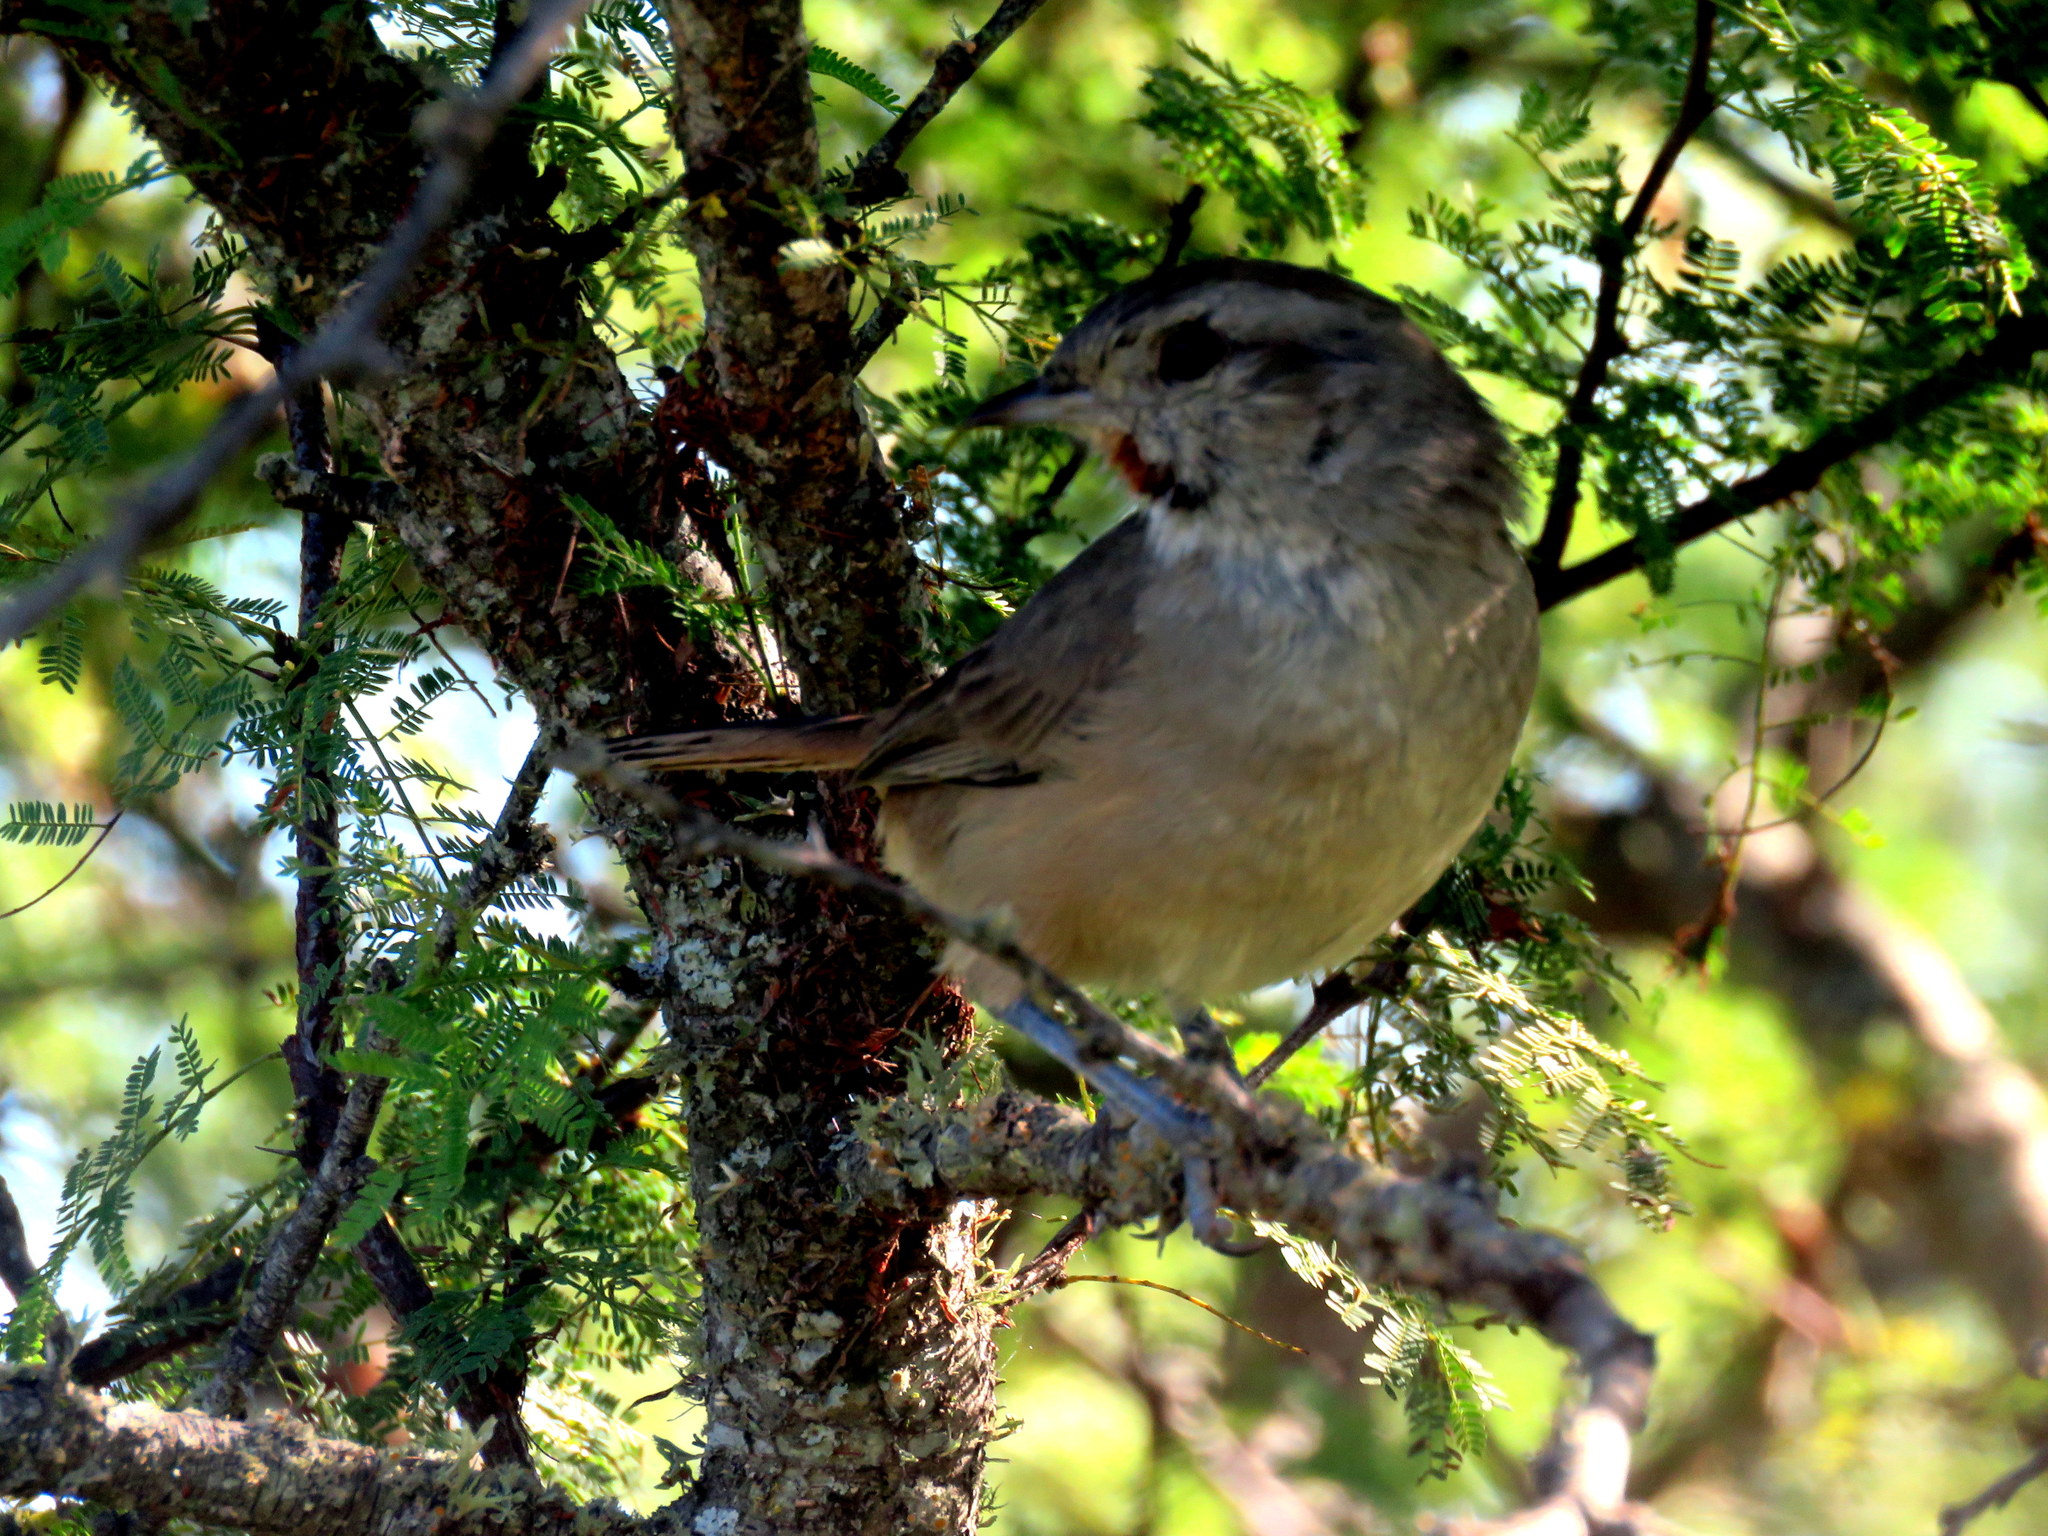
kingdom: Animalia
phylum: Chordata
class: Aves
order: Passeriformes
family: Furnariidae
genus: Asthenes
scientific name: Asthenes baeri
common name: Short-billed canastero
